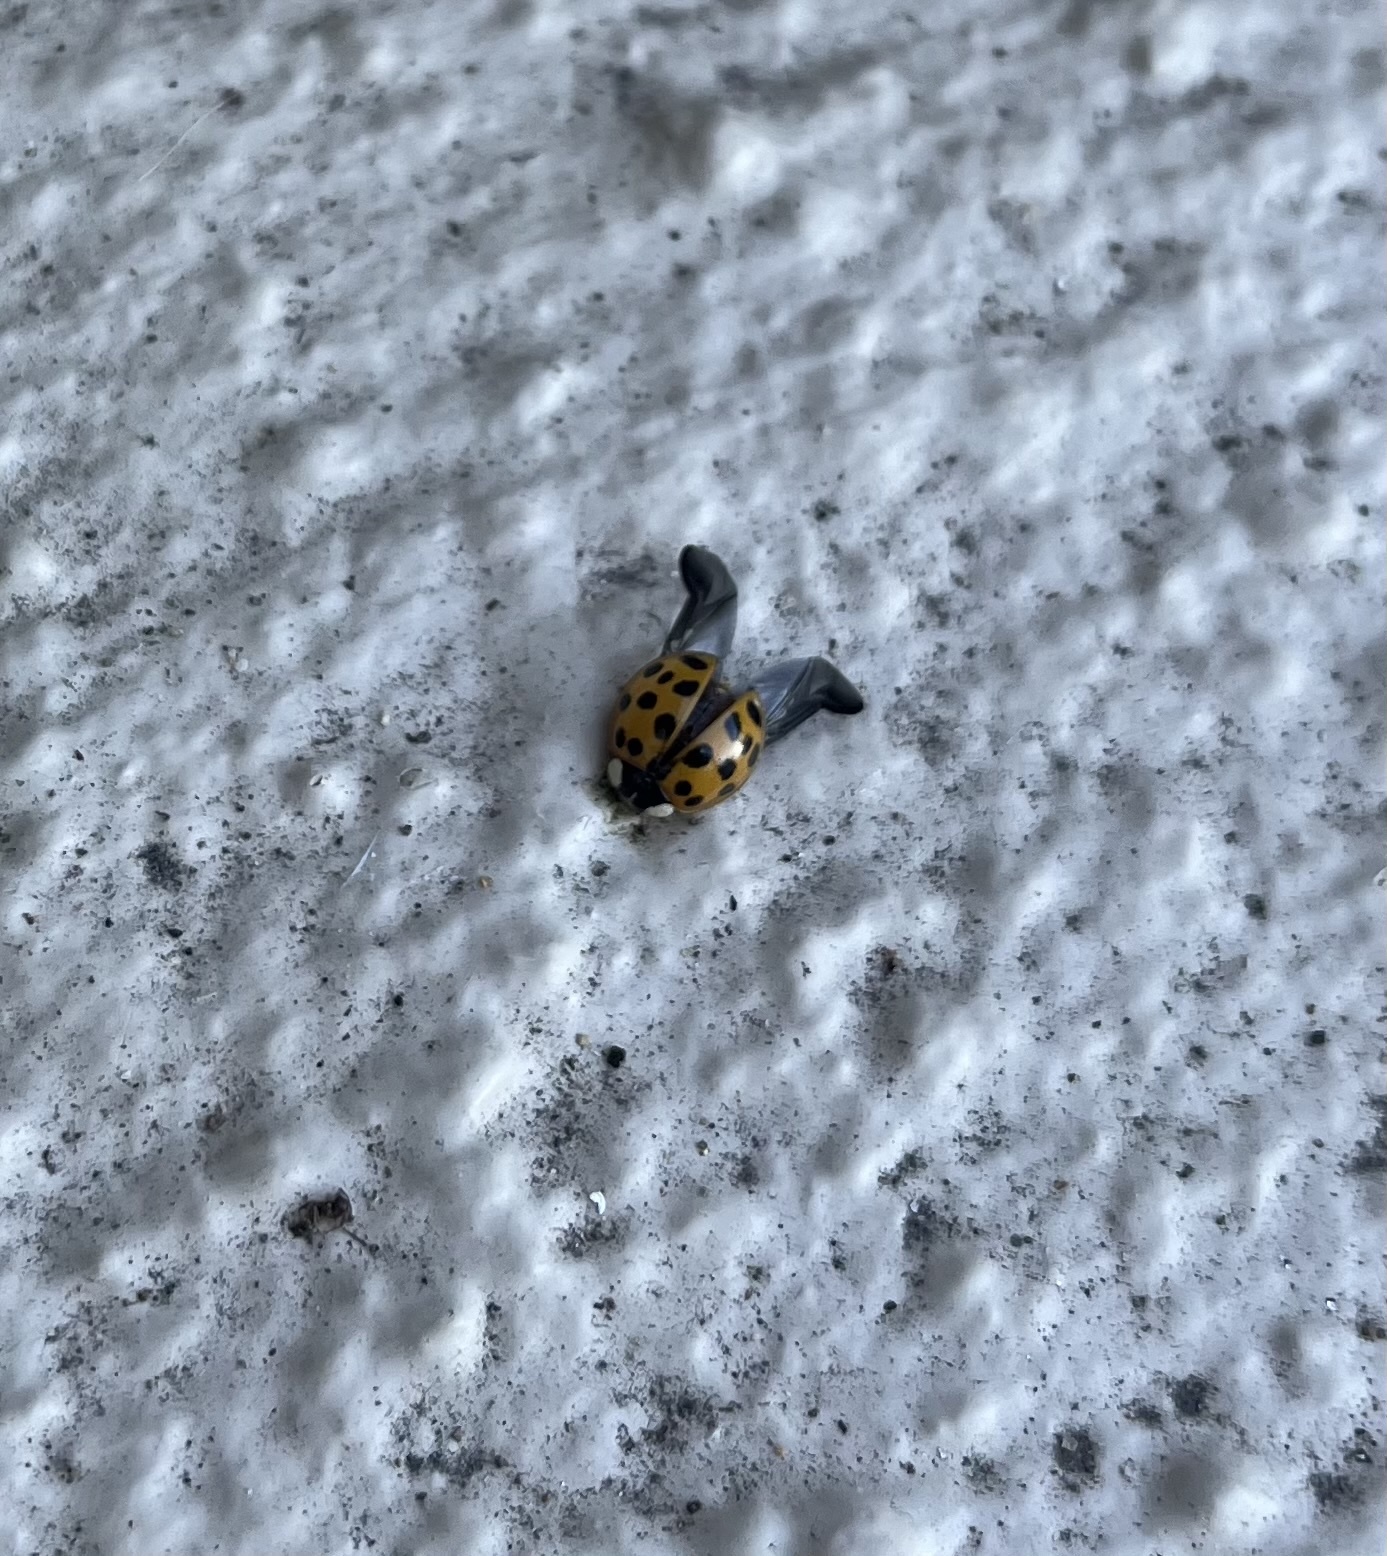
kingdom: Animalia
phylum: Arthropoda
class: Insecta
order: Coleoptera
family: Coccinellidae
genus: Harmonia
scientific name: Harmonia axyridis
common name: Harlequin ladybird
